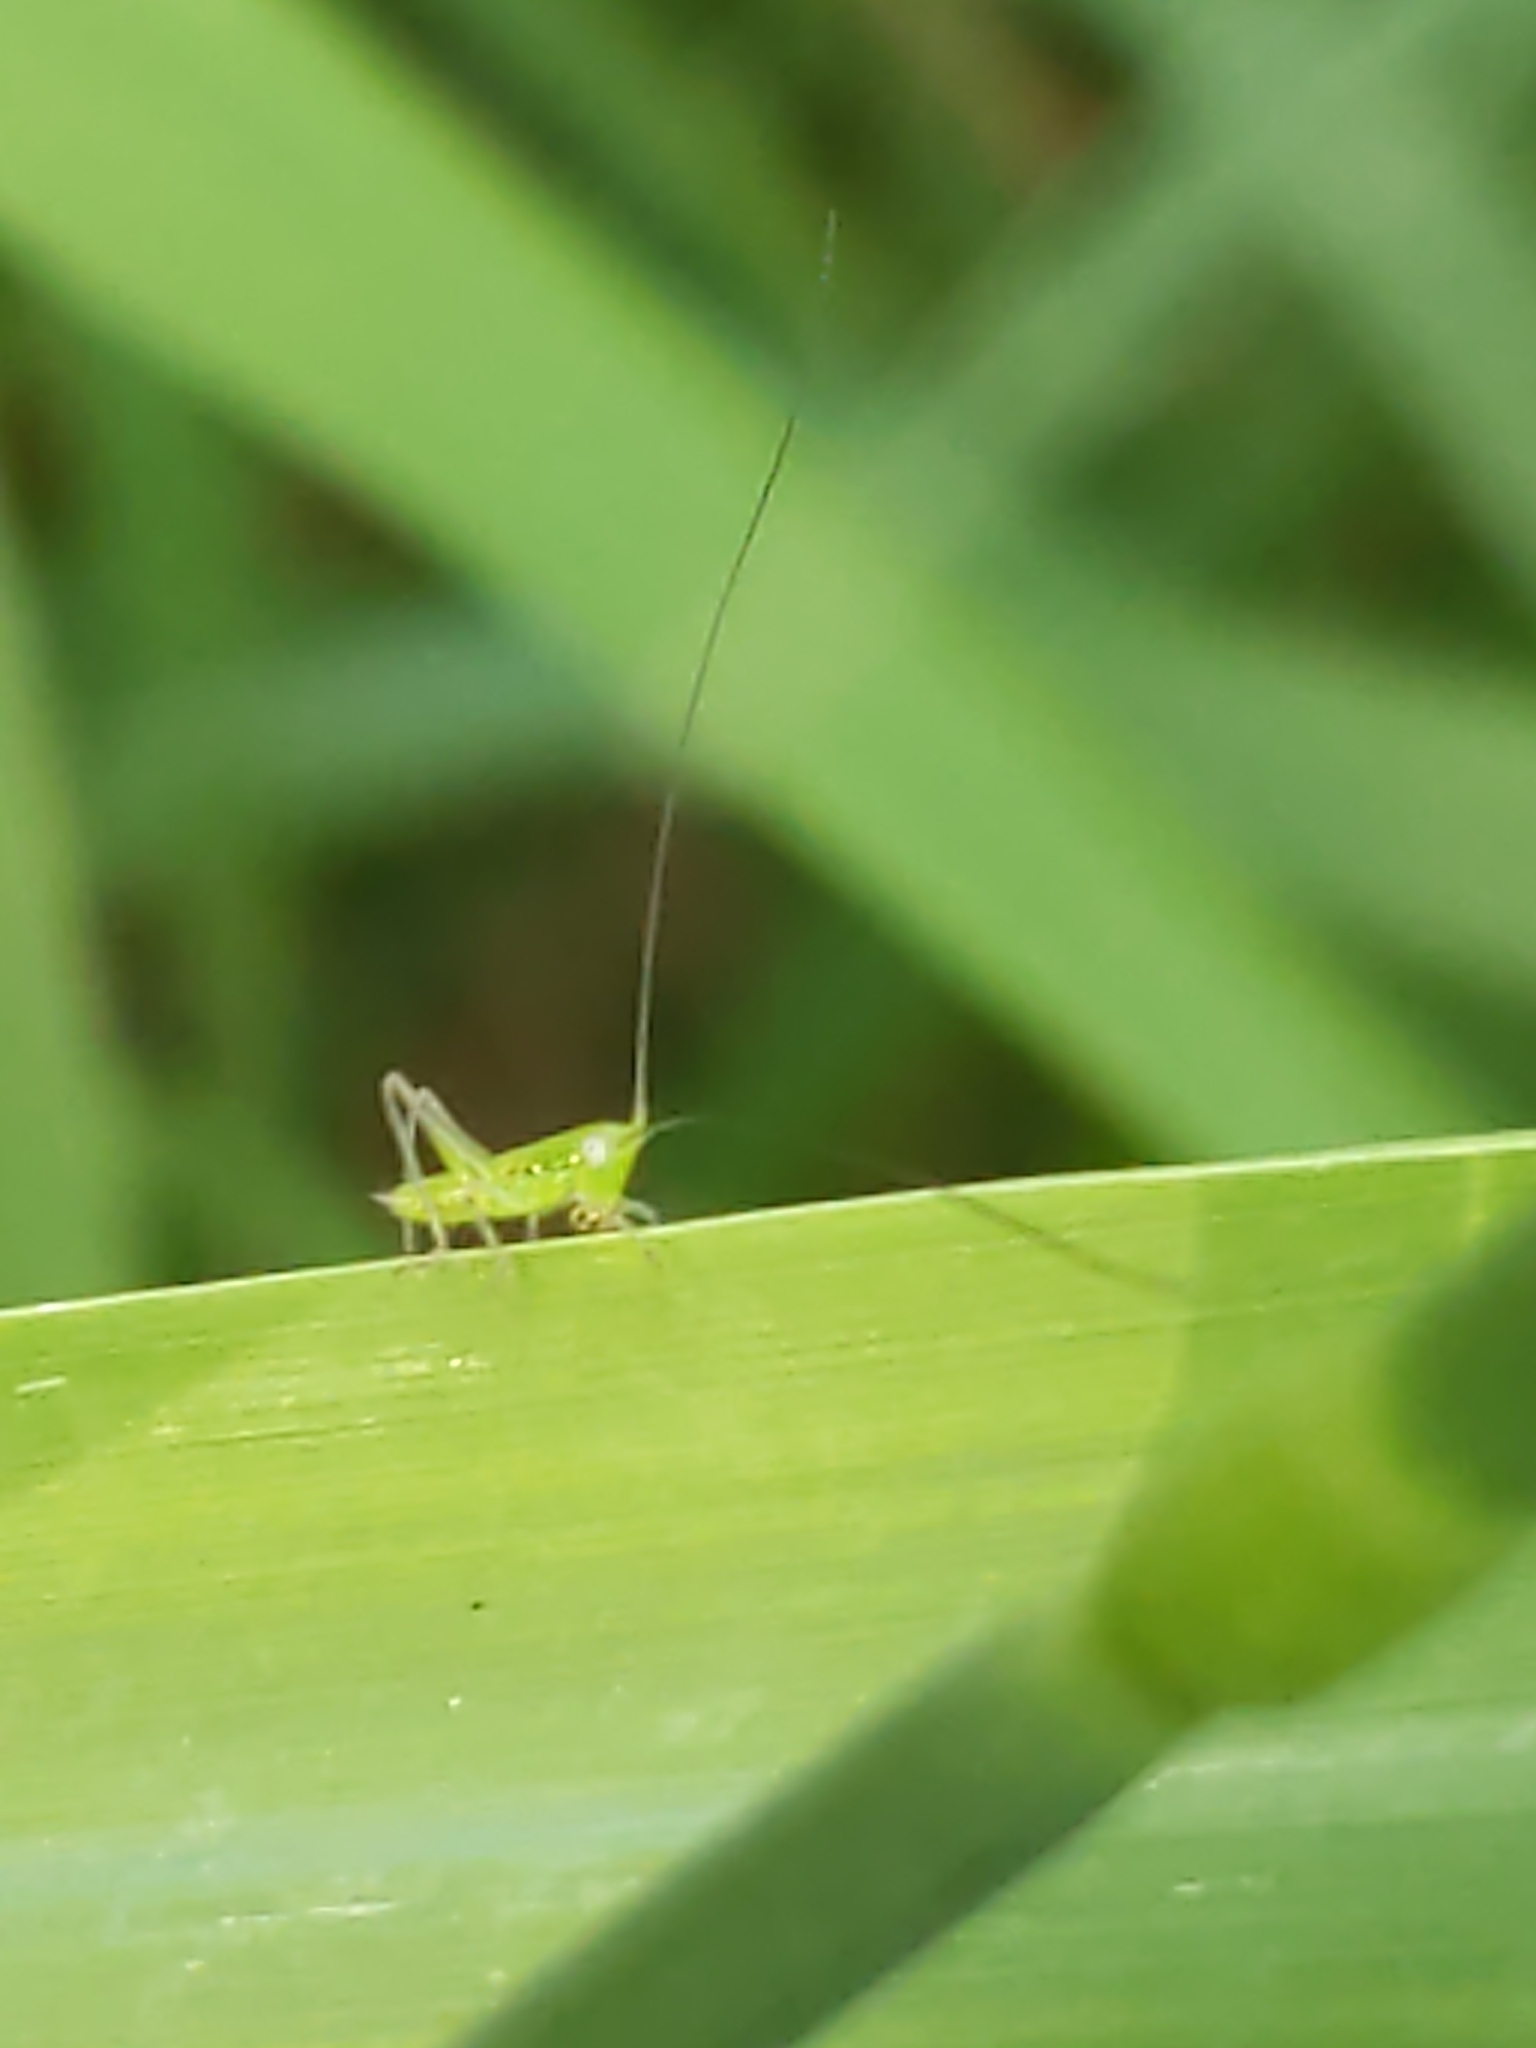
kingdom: Animalia
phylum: Arthropoda
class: Insecta
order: Orthoptera
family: Tettigoniidae
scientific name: Tettigoniidae
